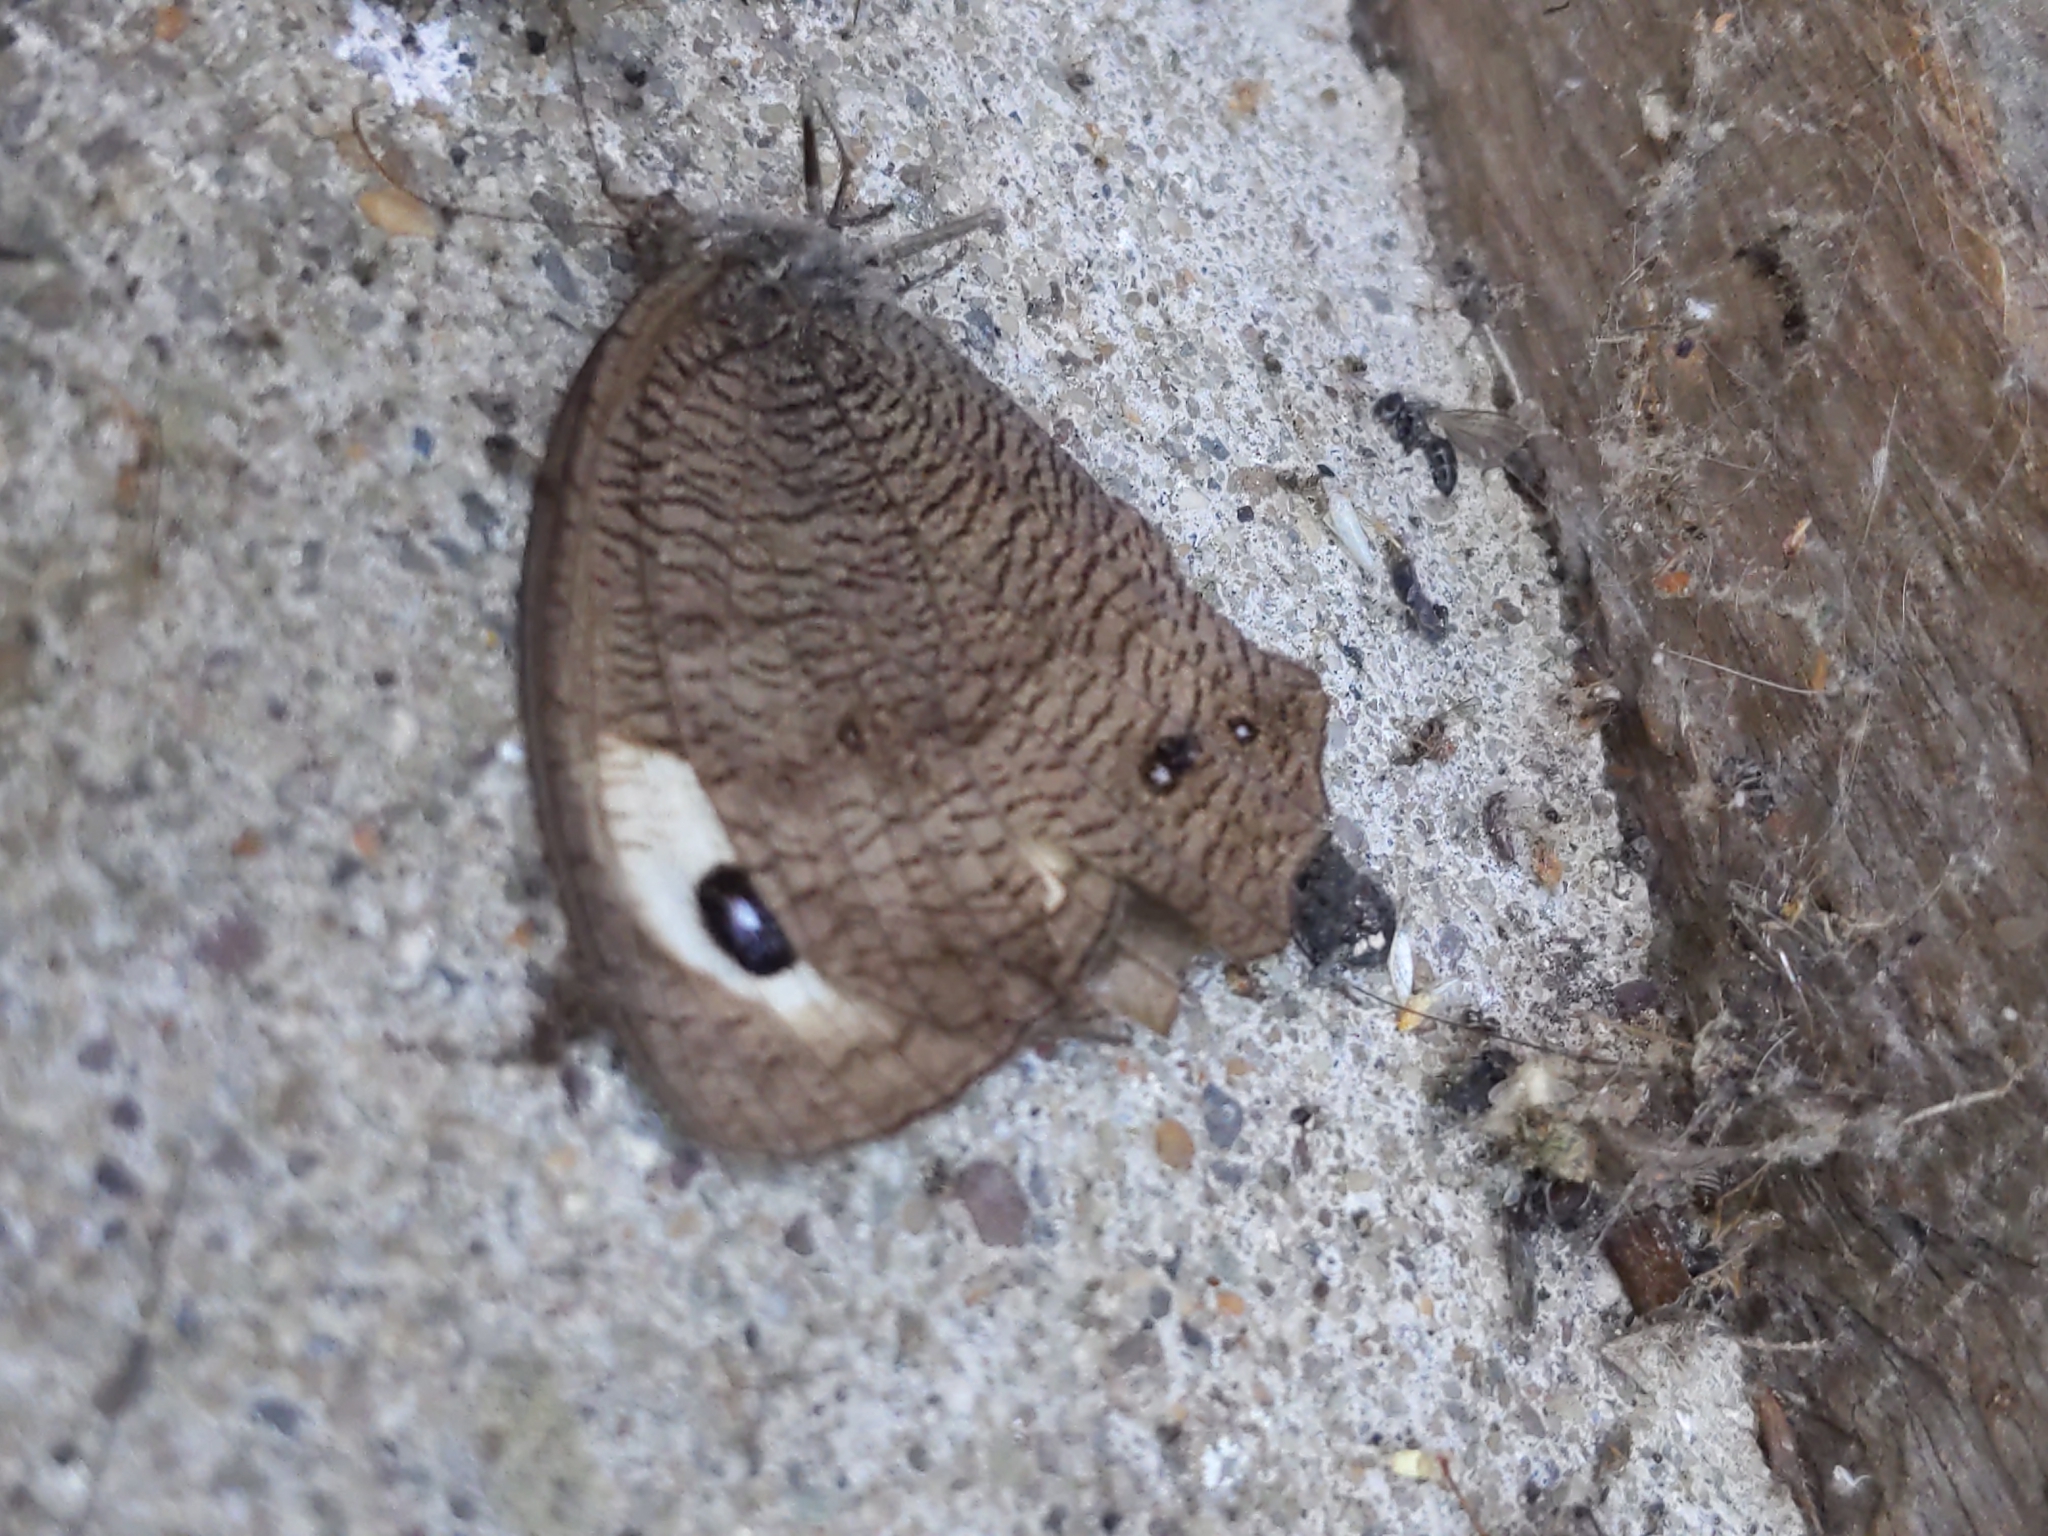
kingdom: Animalia
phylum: Arthropoda
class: Insecta
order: Lepidoptera
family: Nymphalidae
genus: Cercyonis
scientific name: Cercyonis pegala
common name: Common wood-nymph
